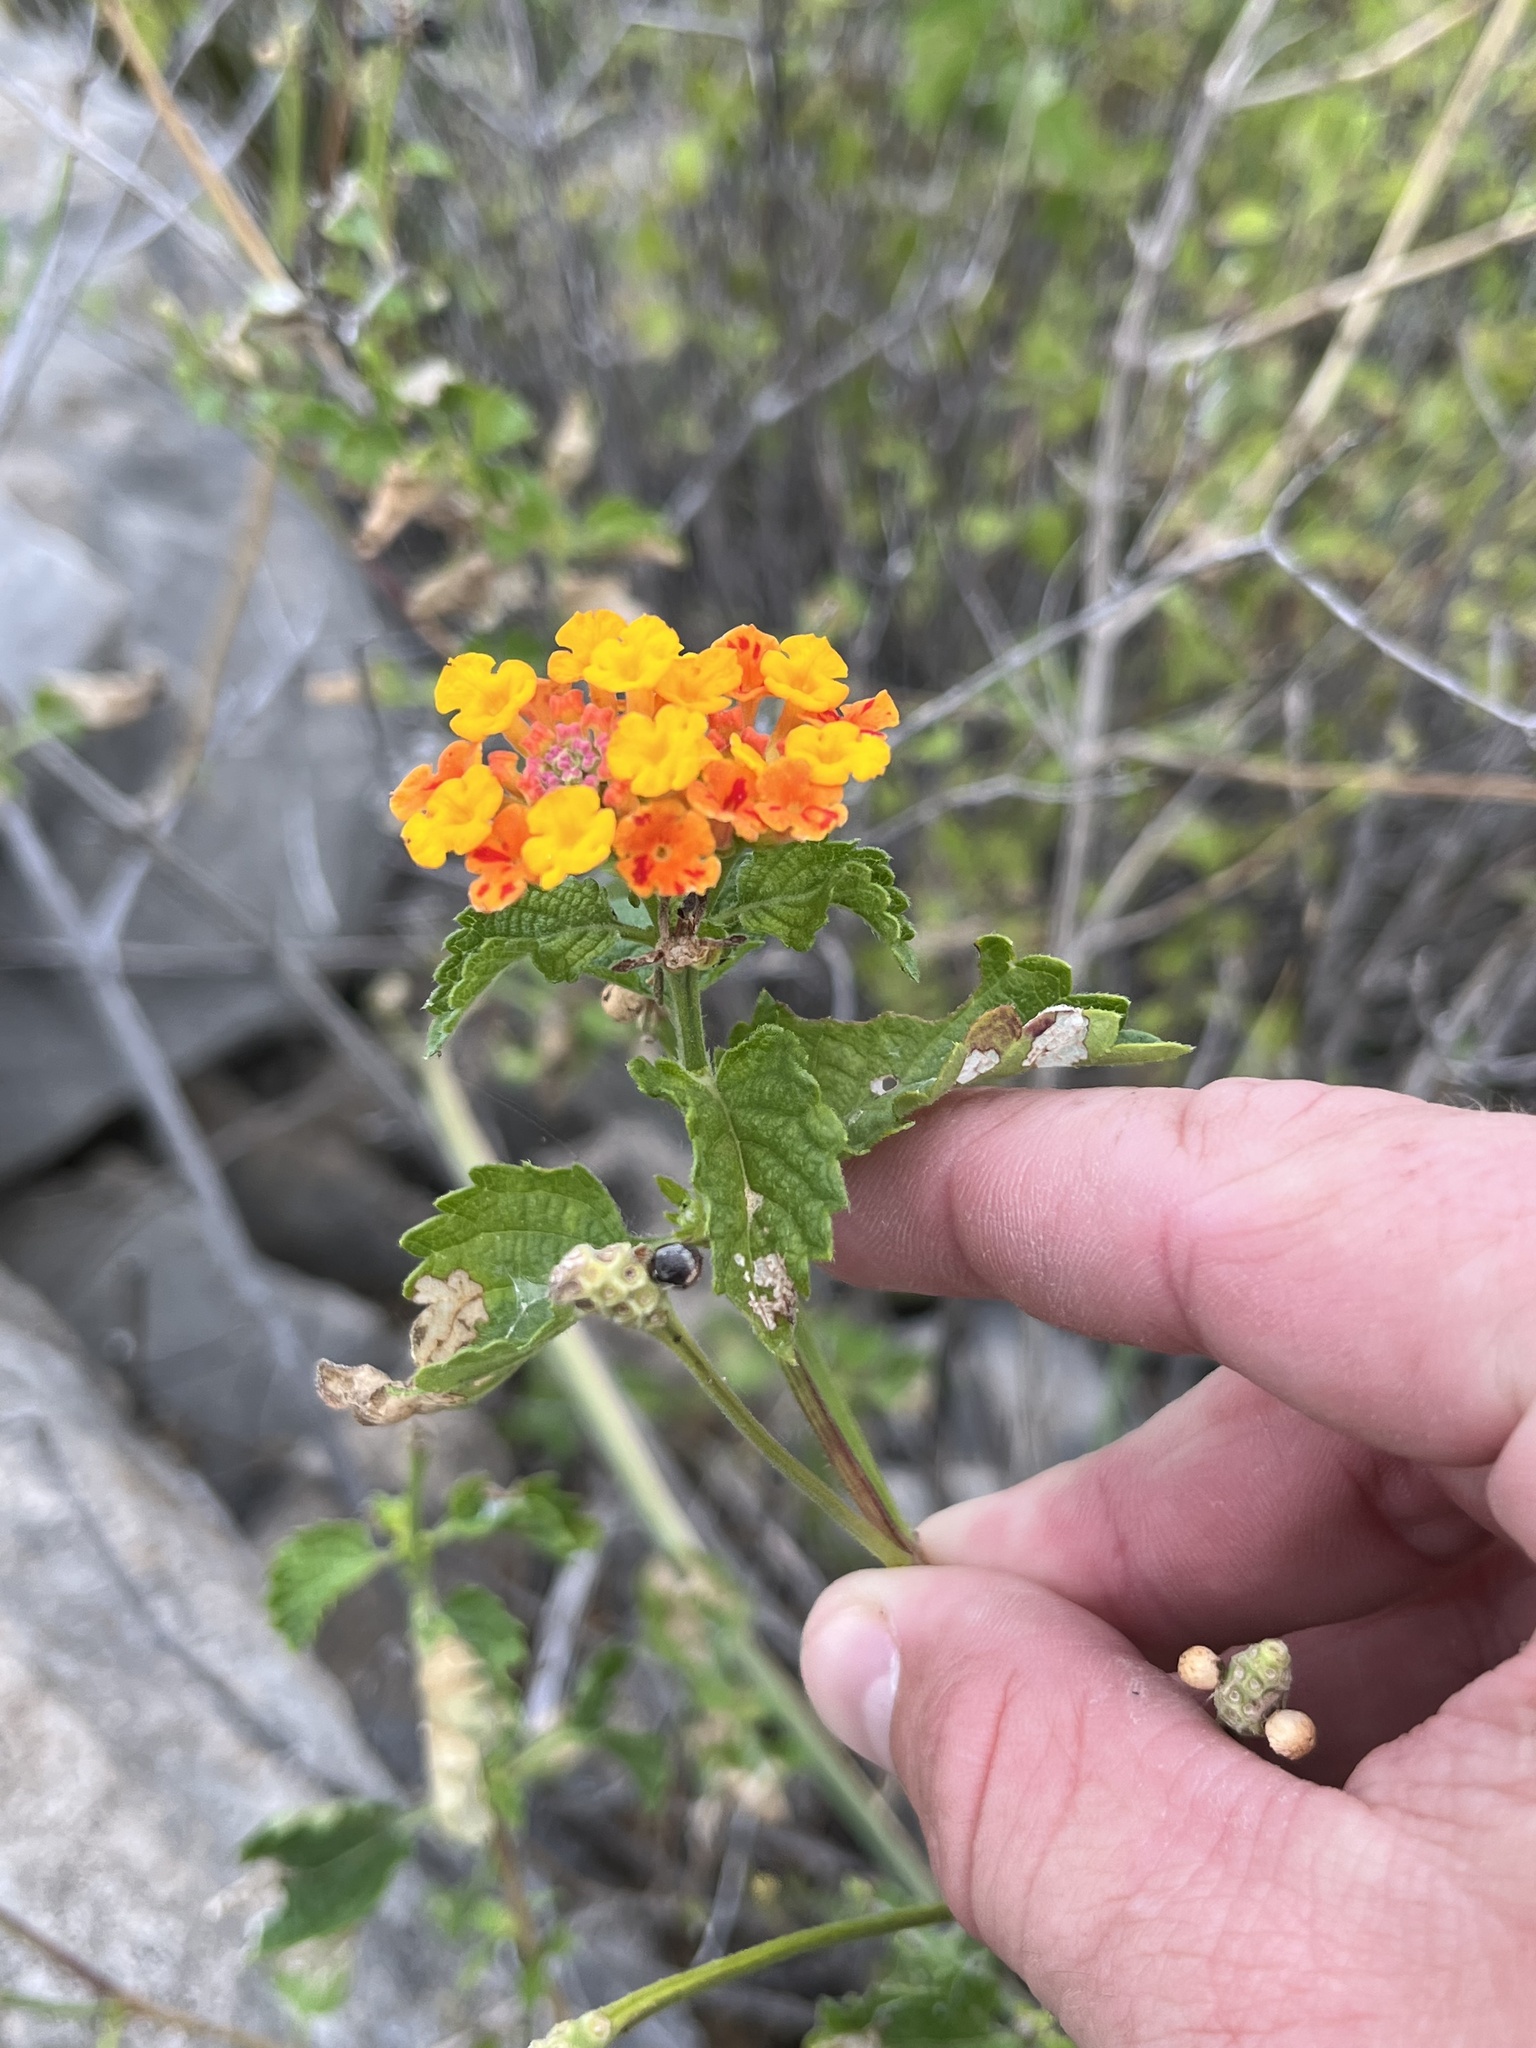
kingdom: Plantae
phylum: Tracheophyta
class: Magnoliopsida
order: Lamiales
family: Verbenaceae
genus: Lantana
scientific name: Lantana urticoides
